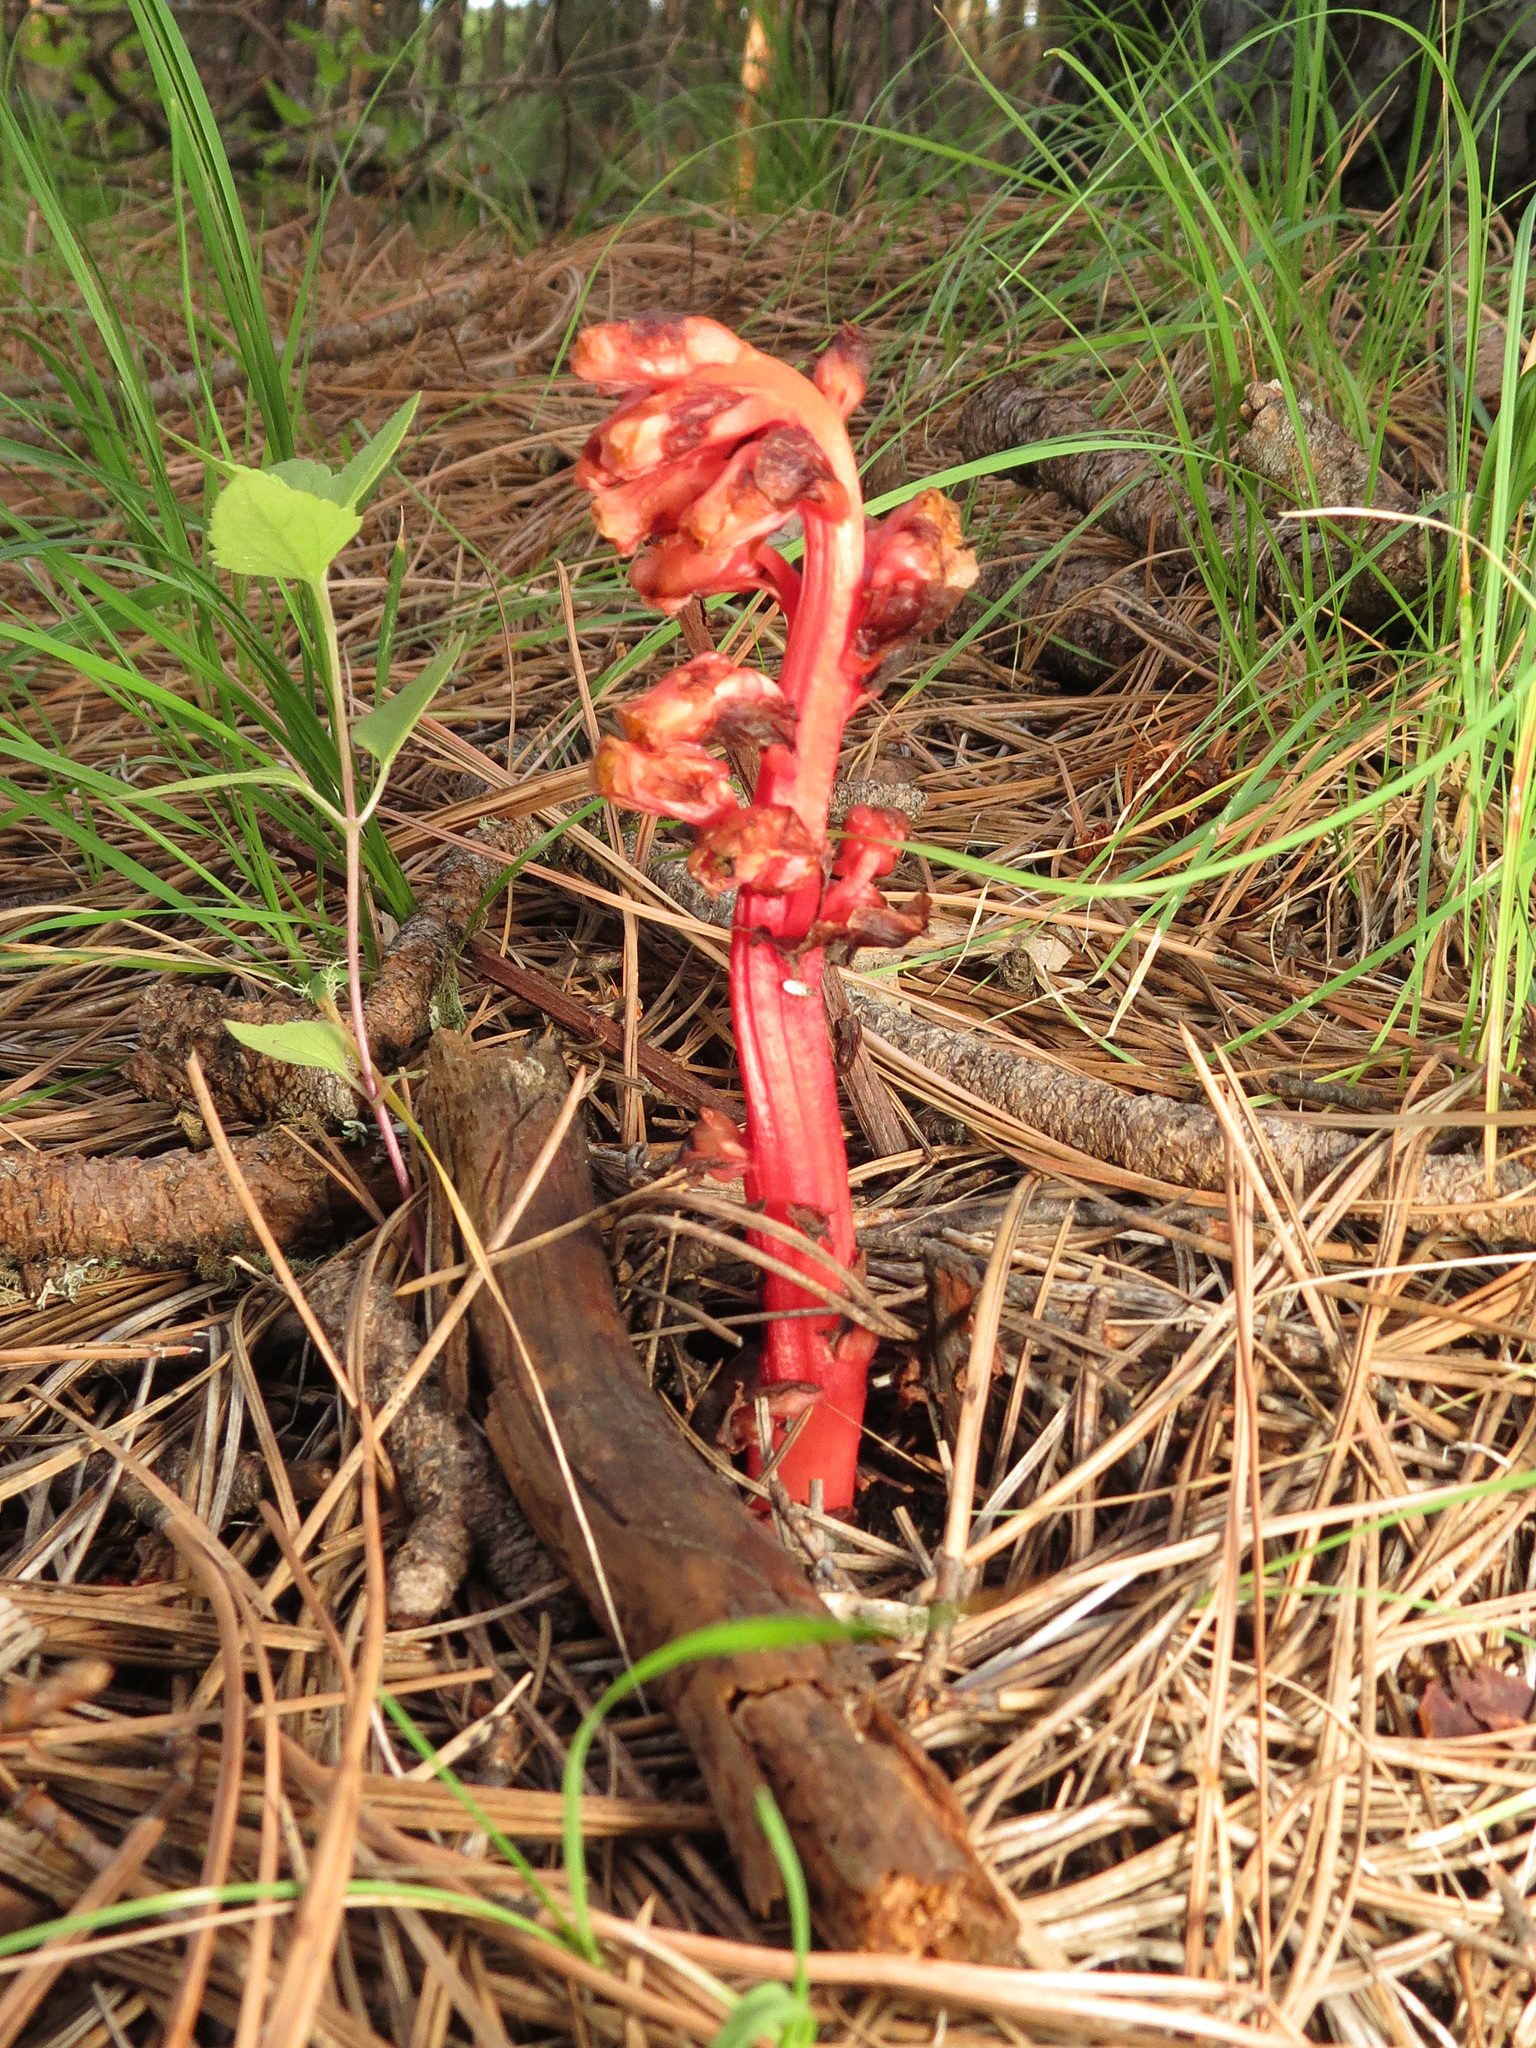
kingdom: Plantae
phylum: Tracheophyta
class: Magnoliopsida
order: Ericales
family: Ericaceae
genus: Hypopitys
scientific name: Hypopitys monotropa
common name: Yellow bird's-nest
